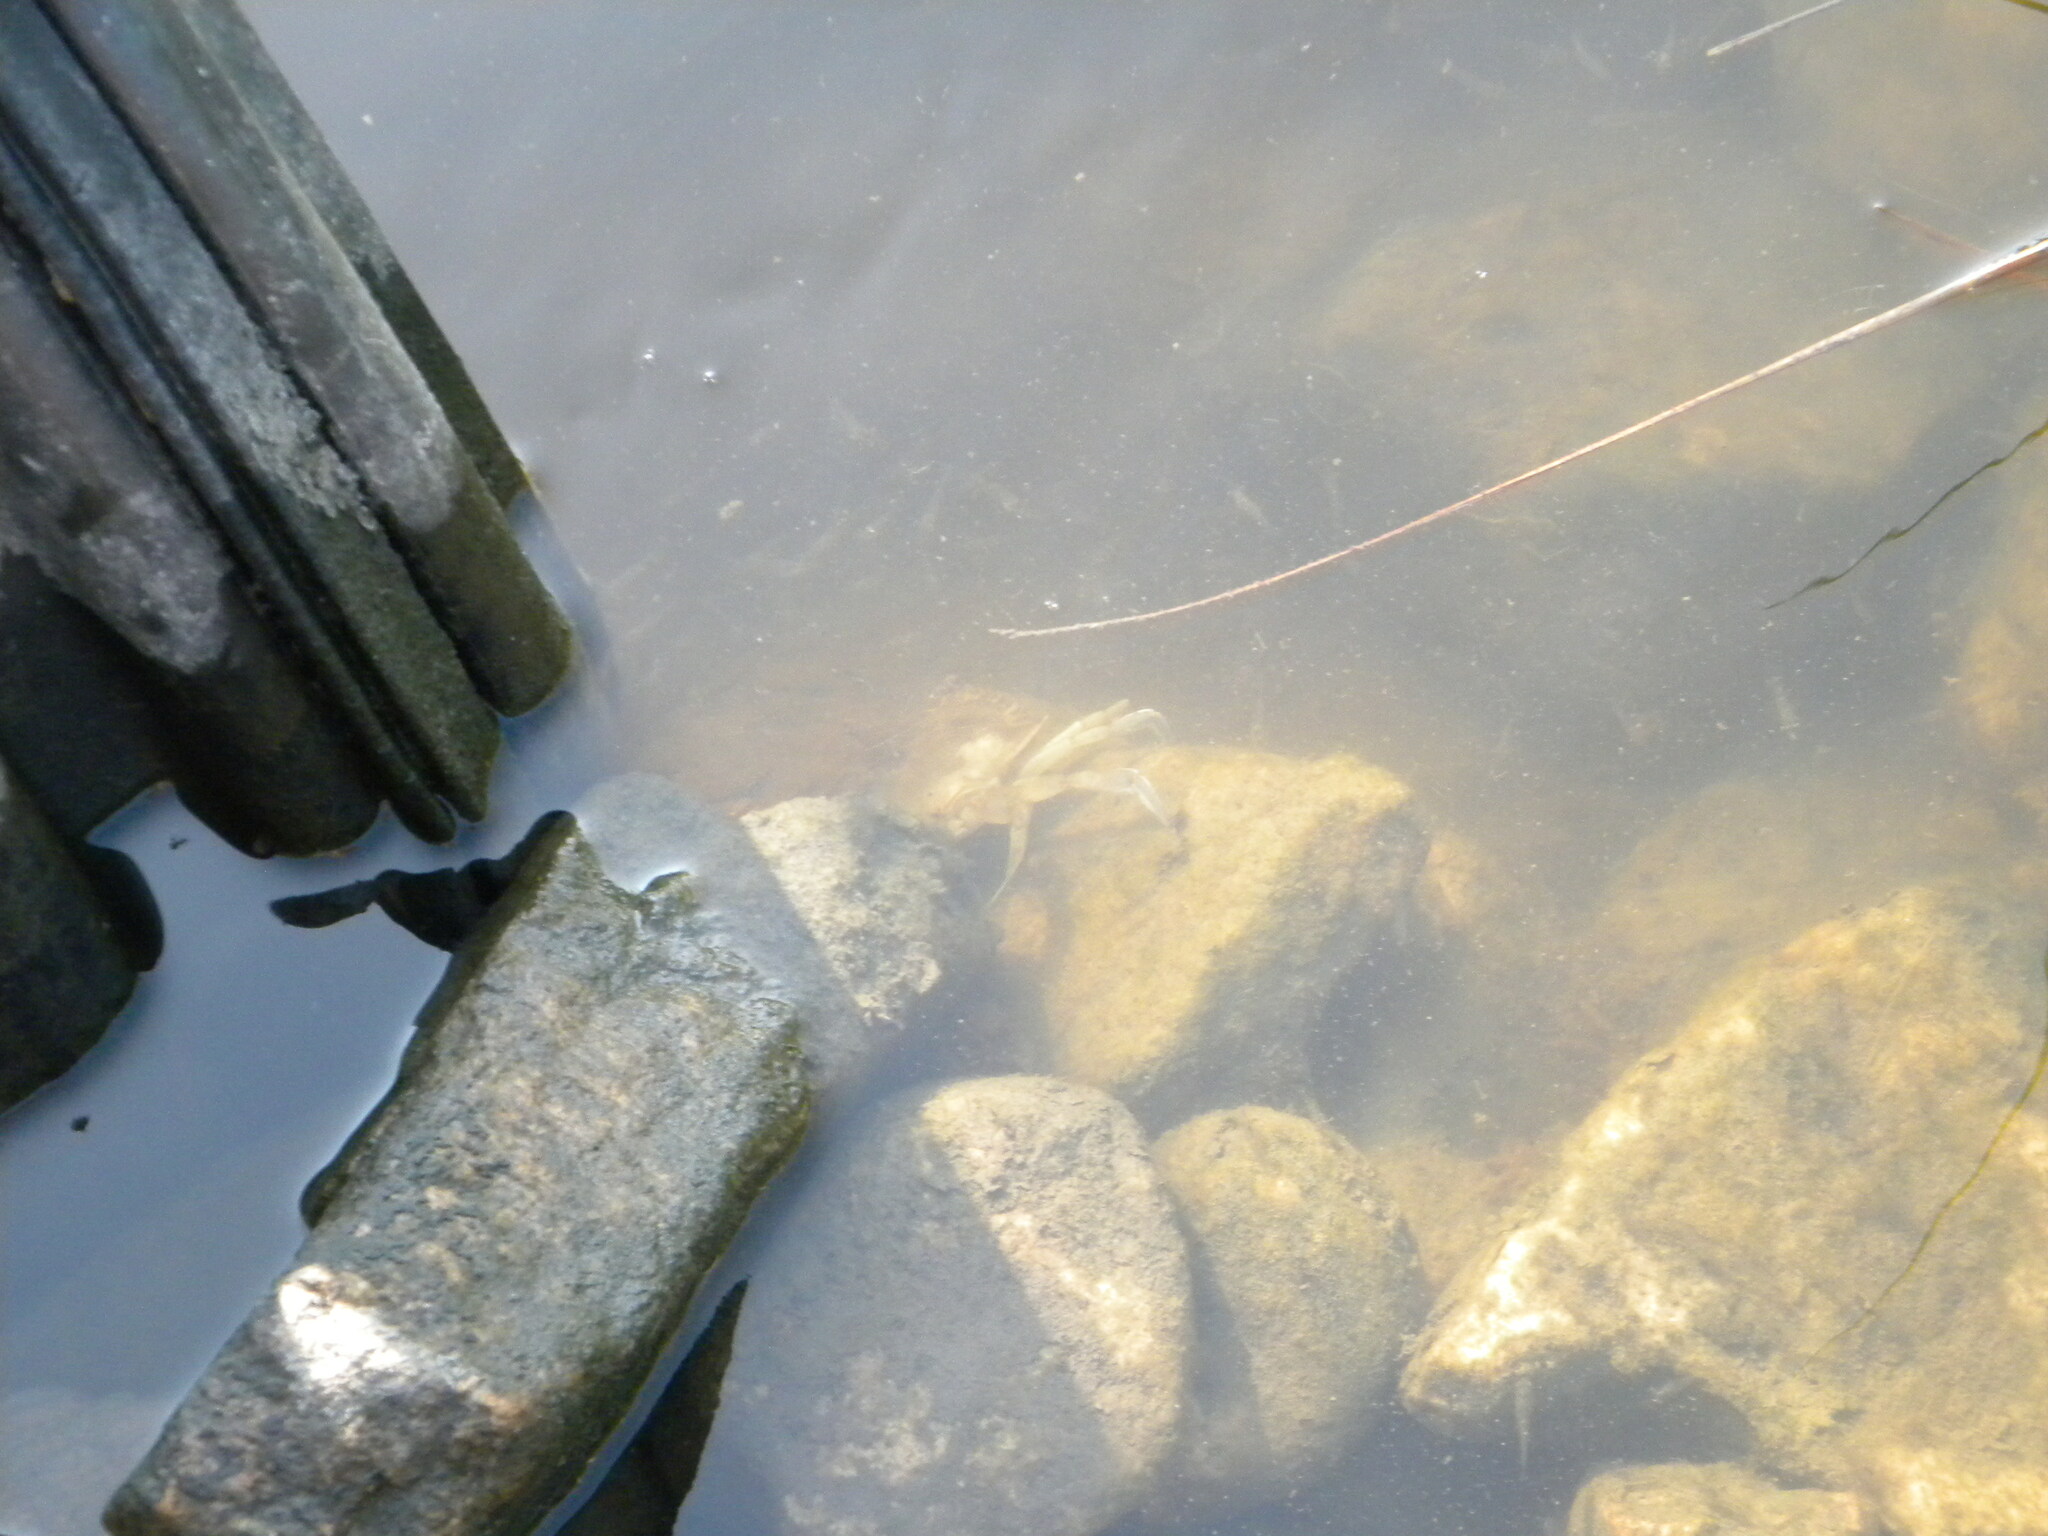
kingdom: Animalia
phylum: Arthropoda
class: Malacostraca
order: Decapoda
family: Portunidae
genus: Callinectes
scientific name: Callinectes sapidus
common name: Blue crab
